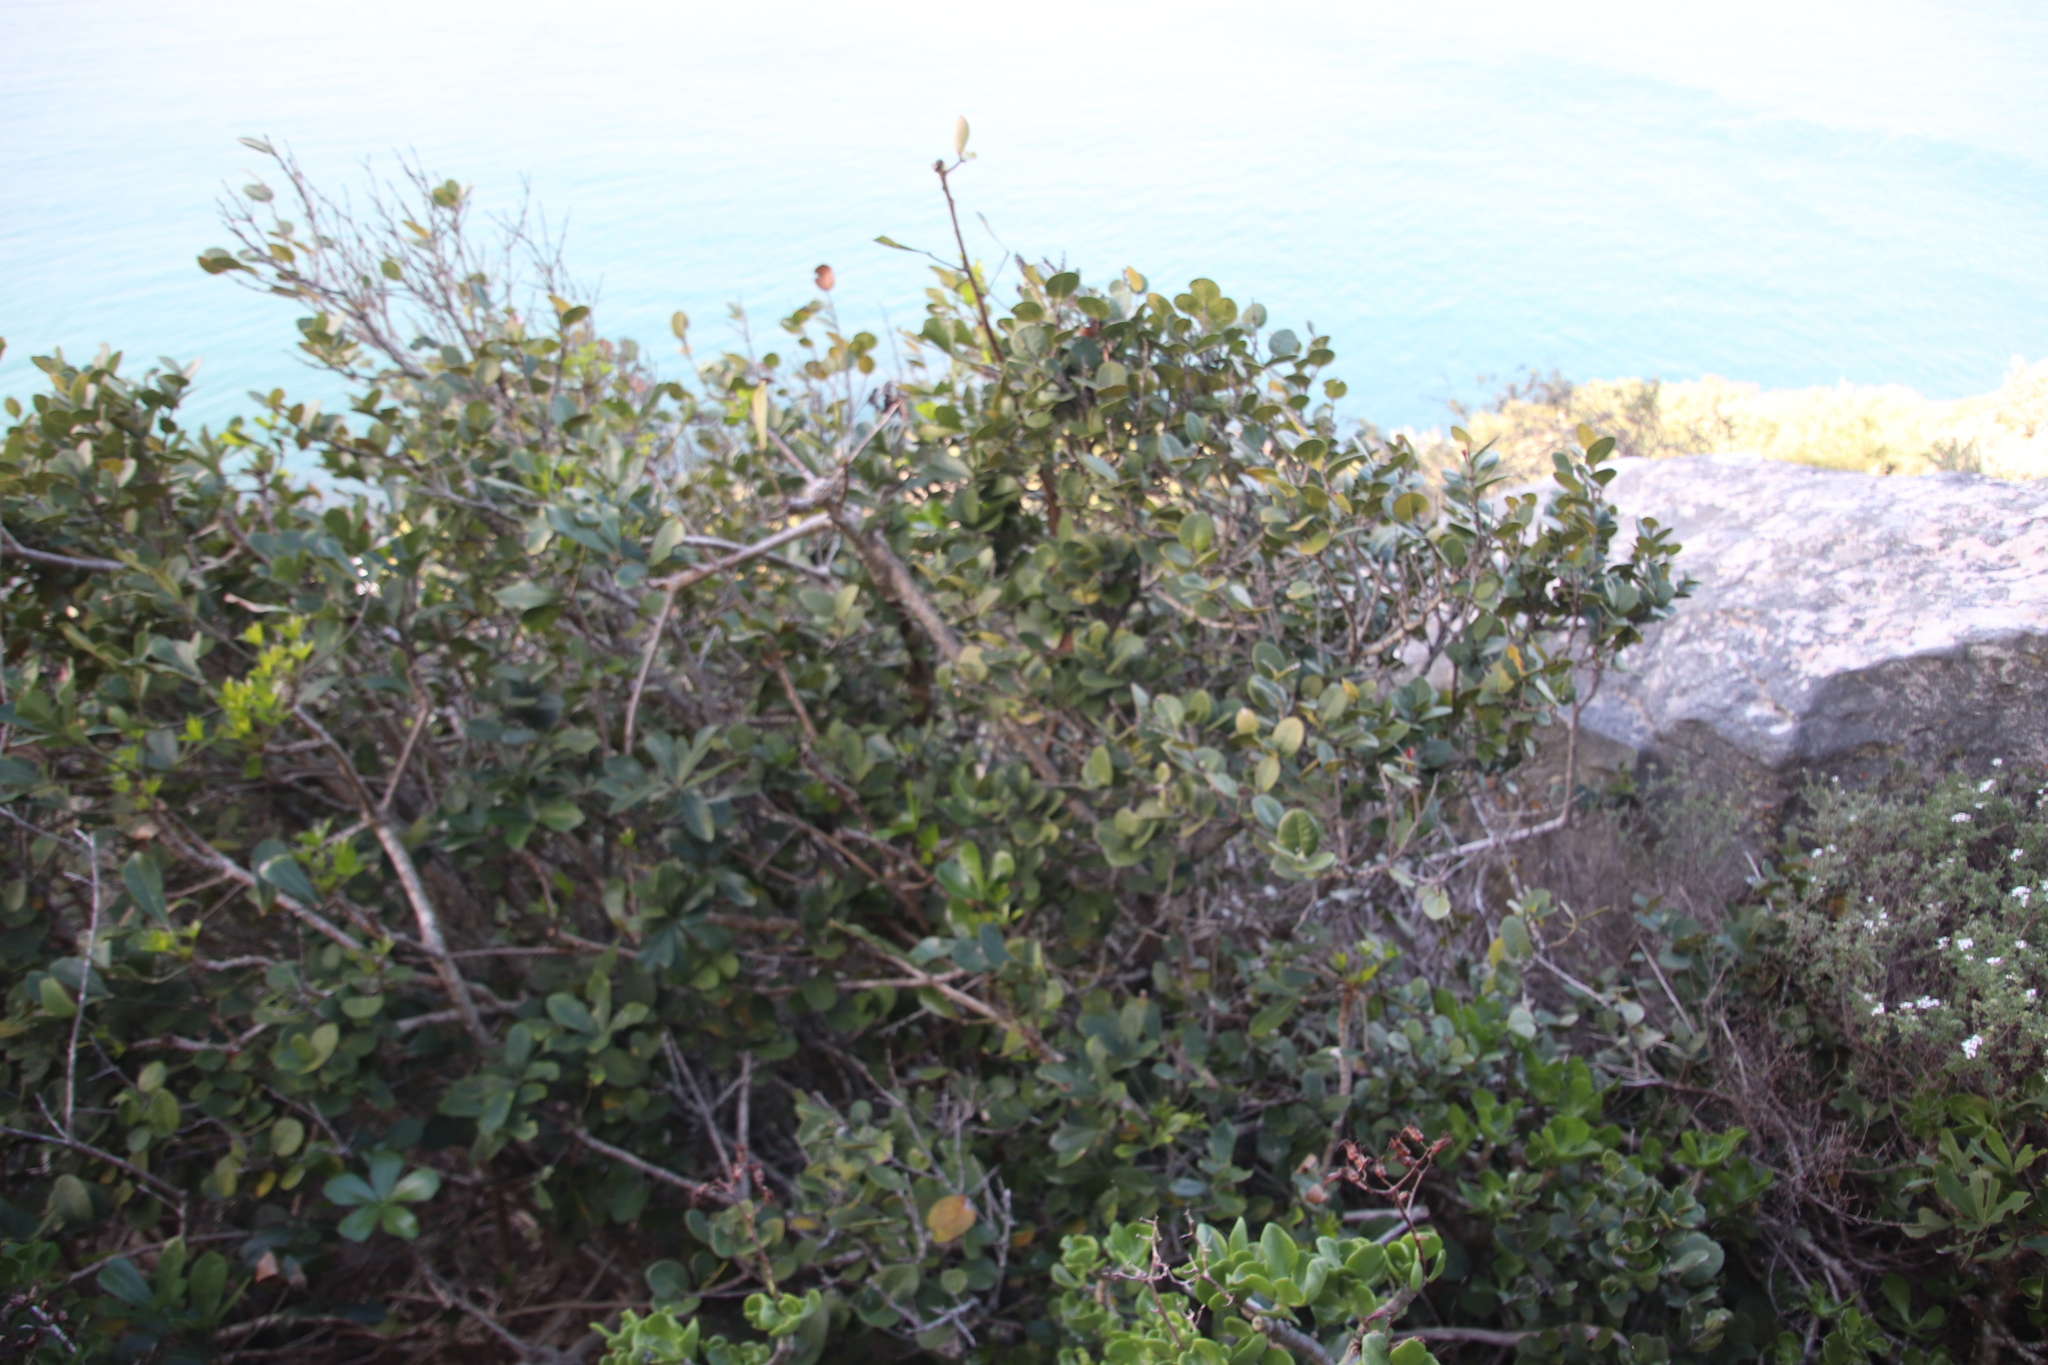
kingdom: Plantae
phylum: Tracheophyta
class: Magnoliopsida
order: Celastrales
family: Celastraceae
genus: Maurocenia
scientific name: Maurocenia frangula
